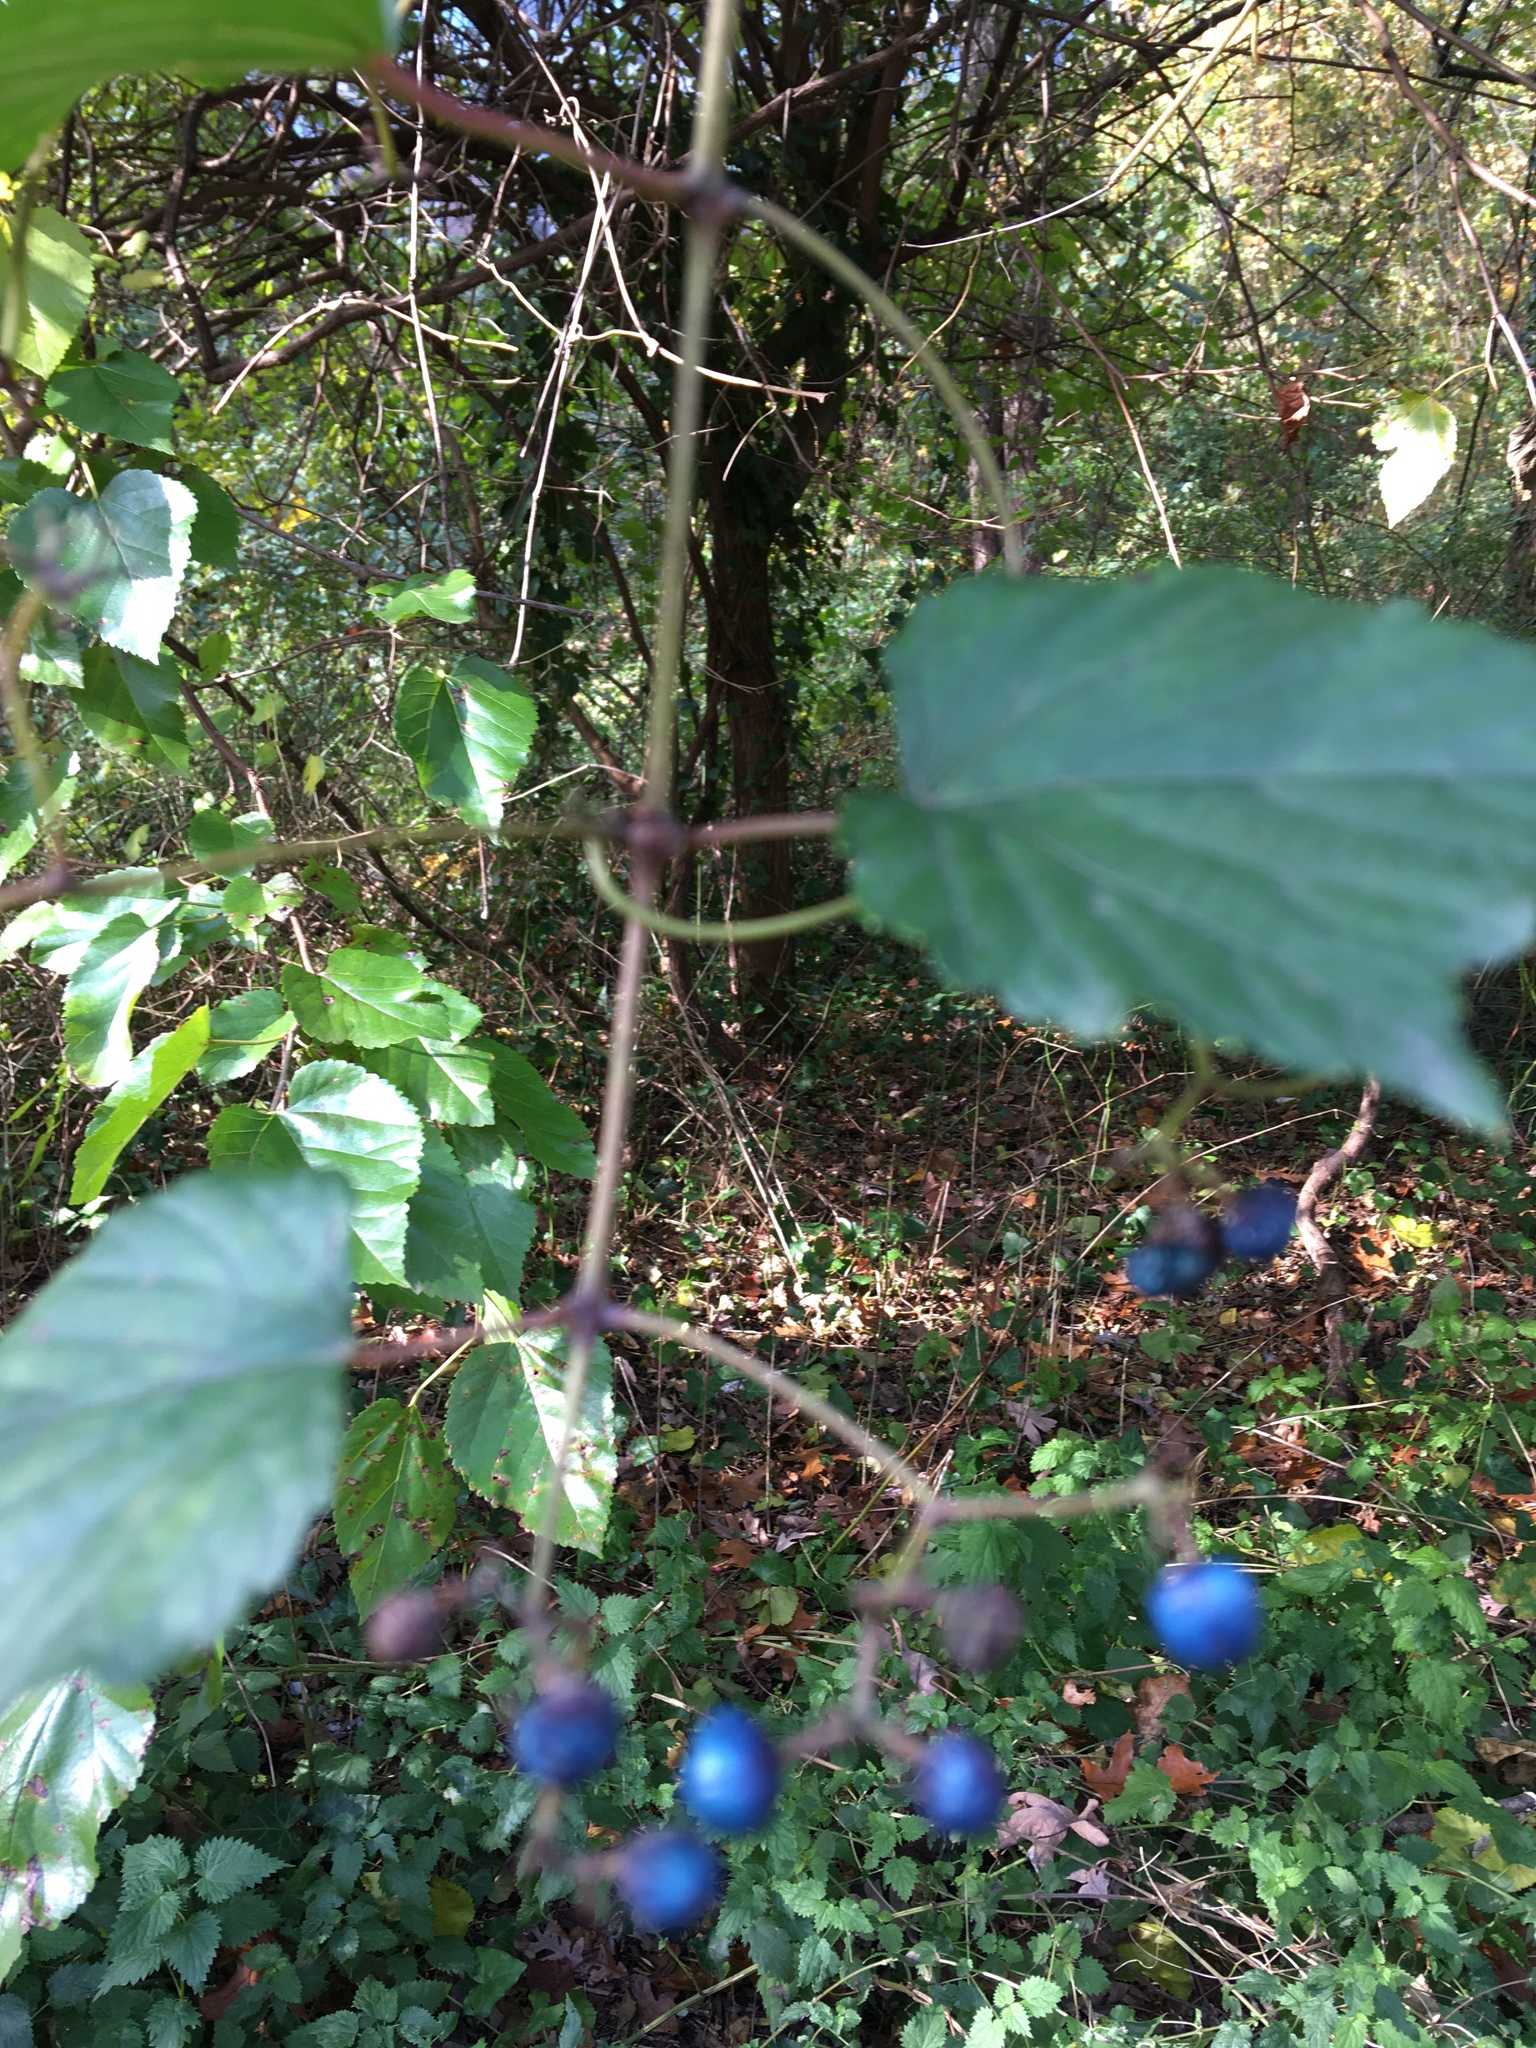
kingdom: Plantae
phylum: Tracheophyta
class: Magnoliopsida
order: Vitales
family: Vitaceae
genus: Ampelopsis
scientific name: Ampelopsis glandulosa
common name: Amur peppervine
